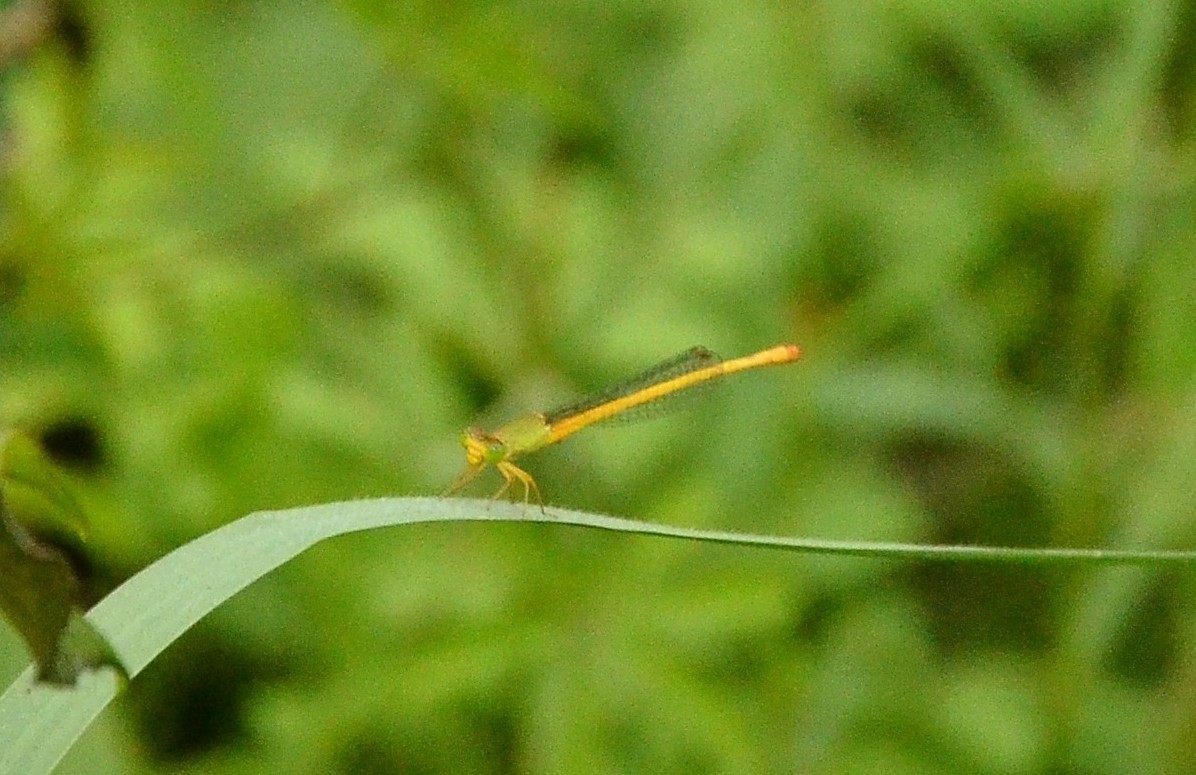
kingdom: Animalia
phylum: Arthropoda
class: Insecta
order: Odonata
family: Coenagrionidae
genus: Ceriagrion
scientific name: Ceriagrion coromandelianum
